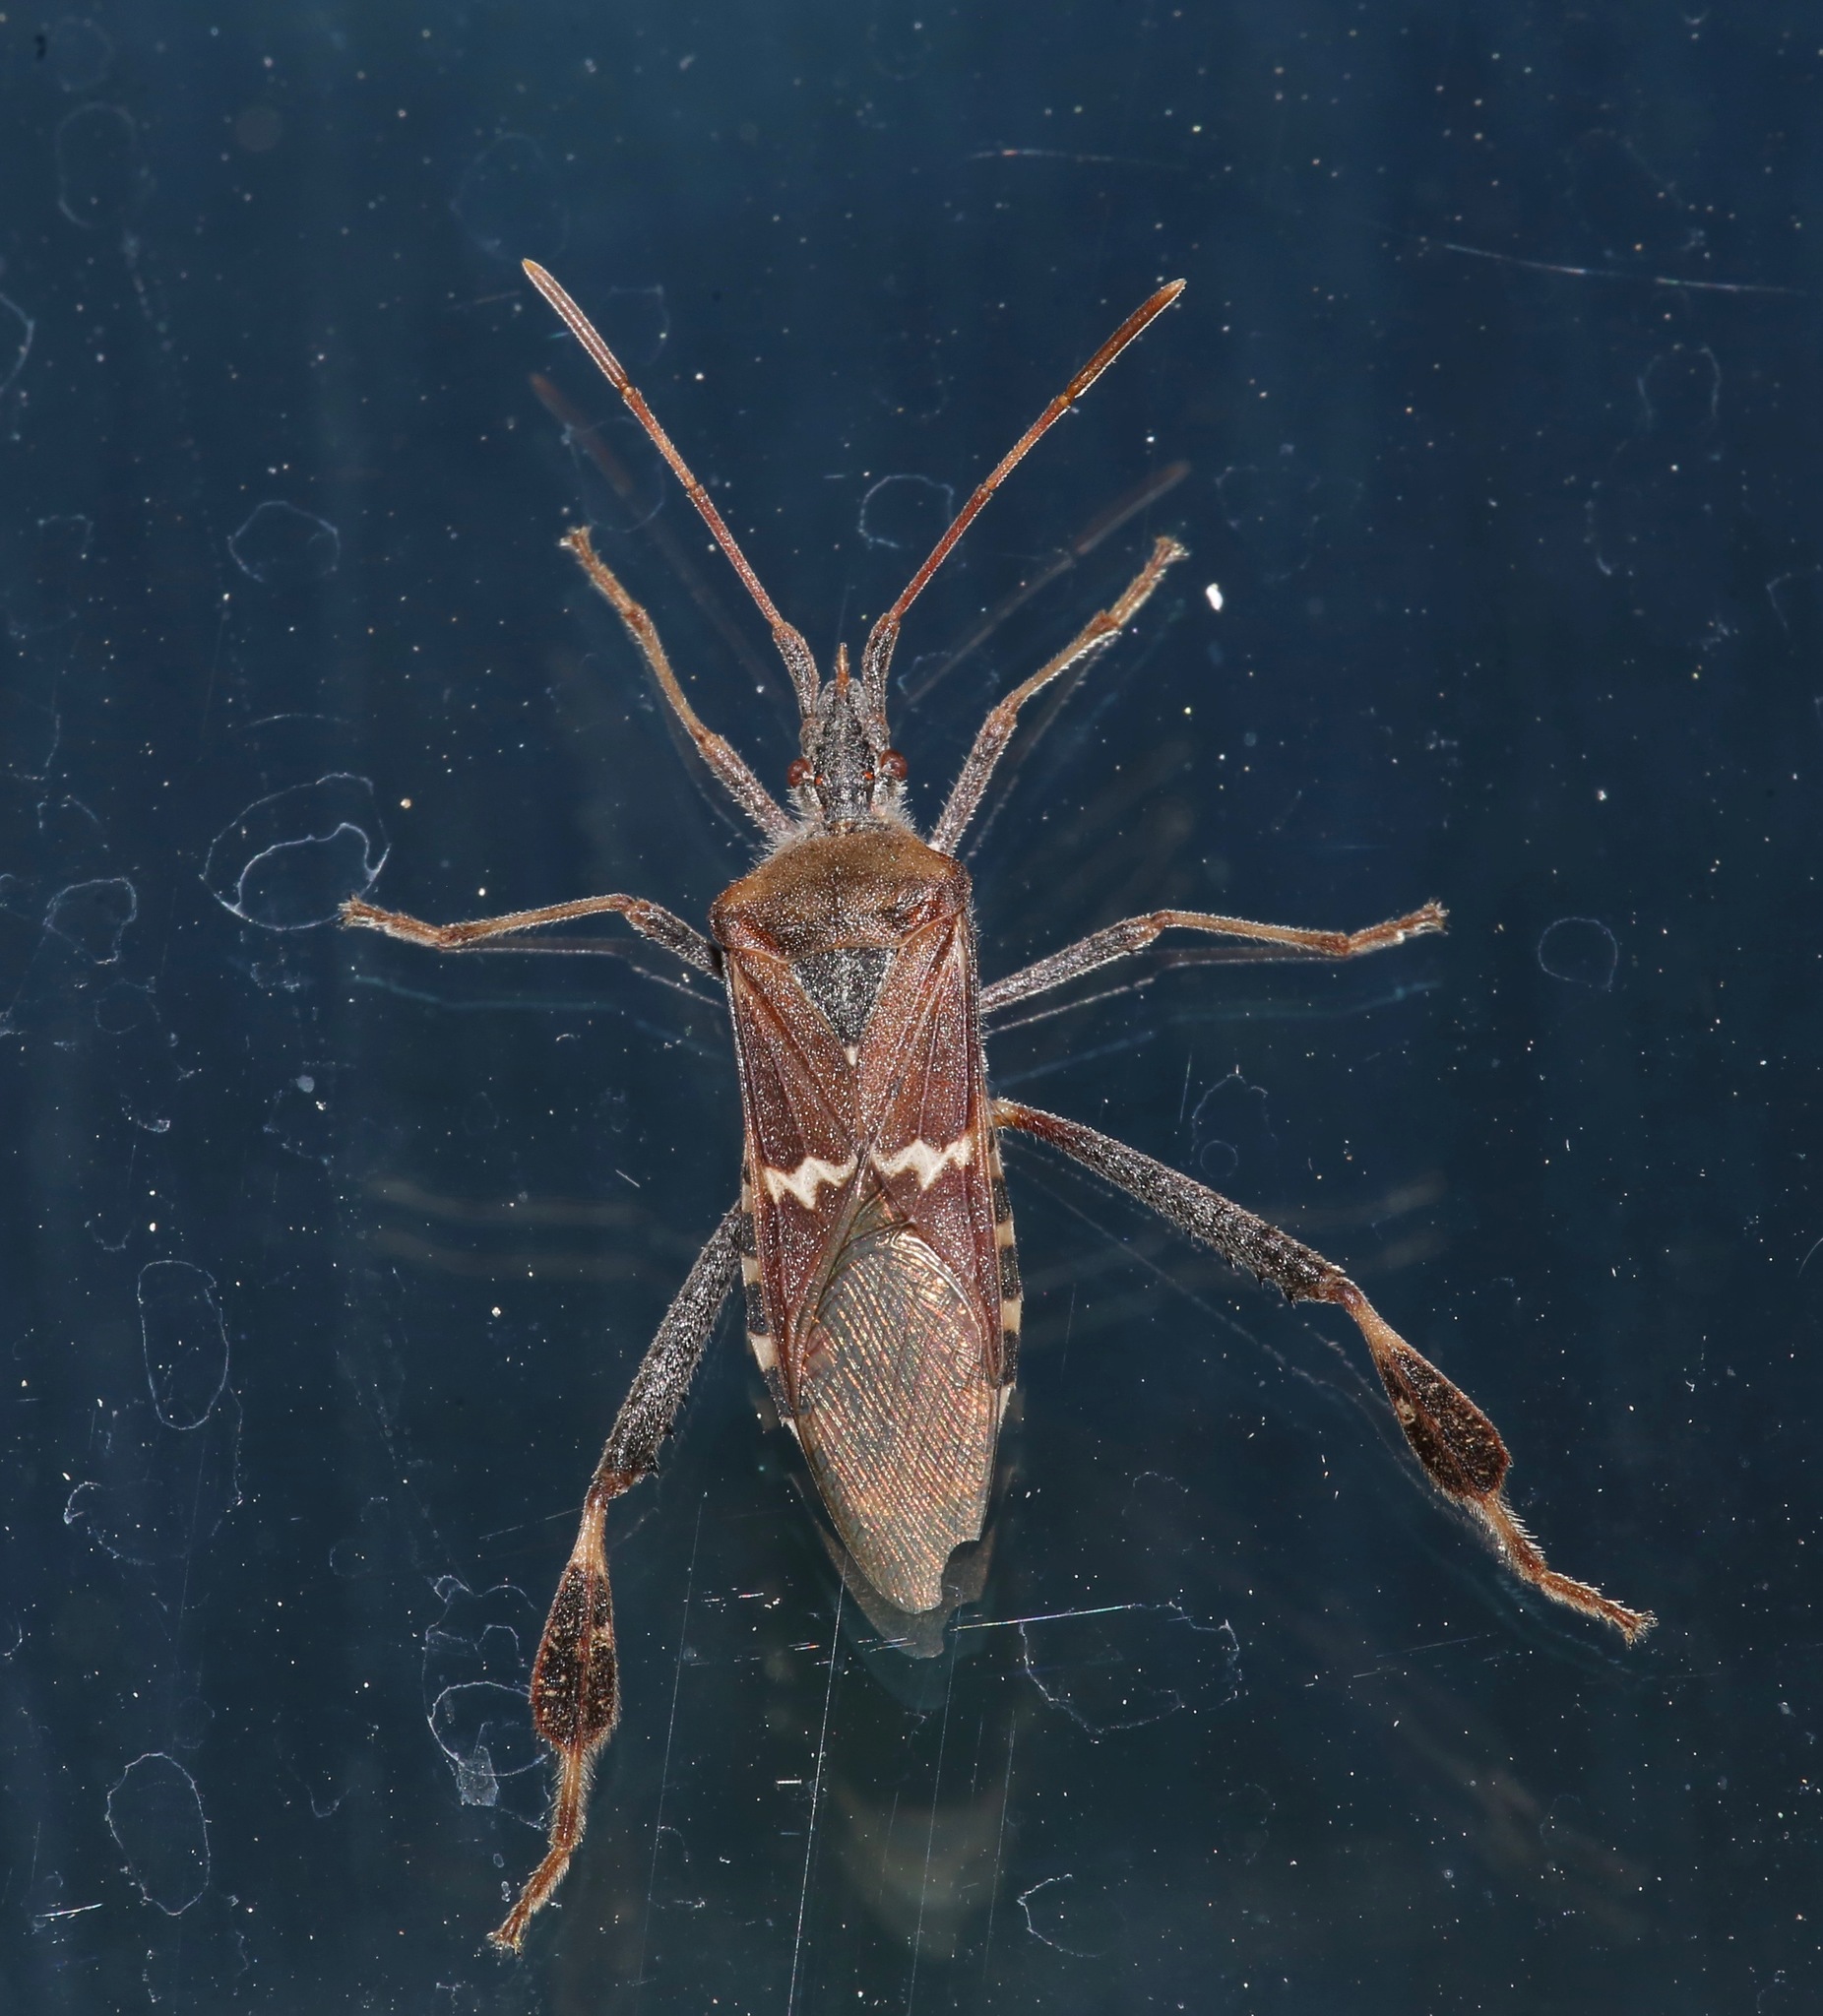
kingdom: Animalia
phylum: Arthropoda
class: Insecta
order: Hemiptera
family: Coreidae
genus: Leptoglossus
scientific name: Leptoglossus clypealis
